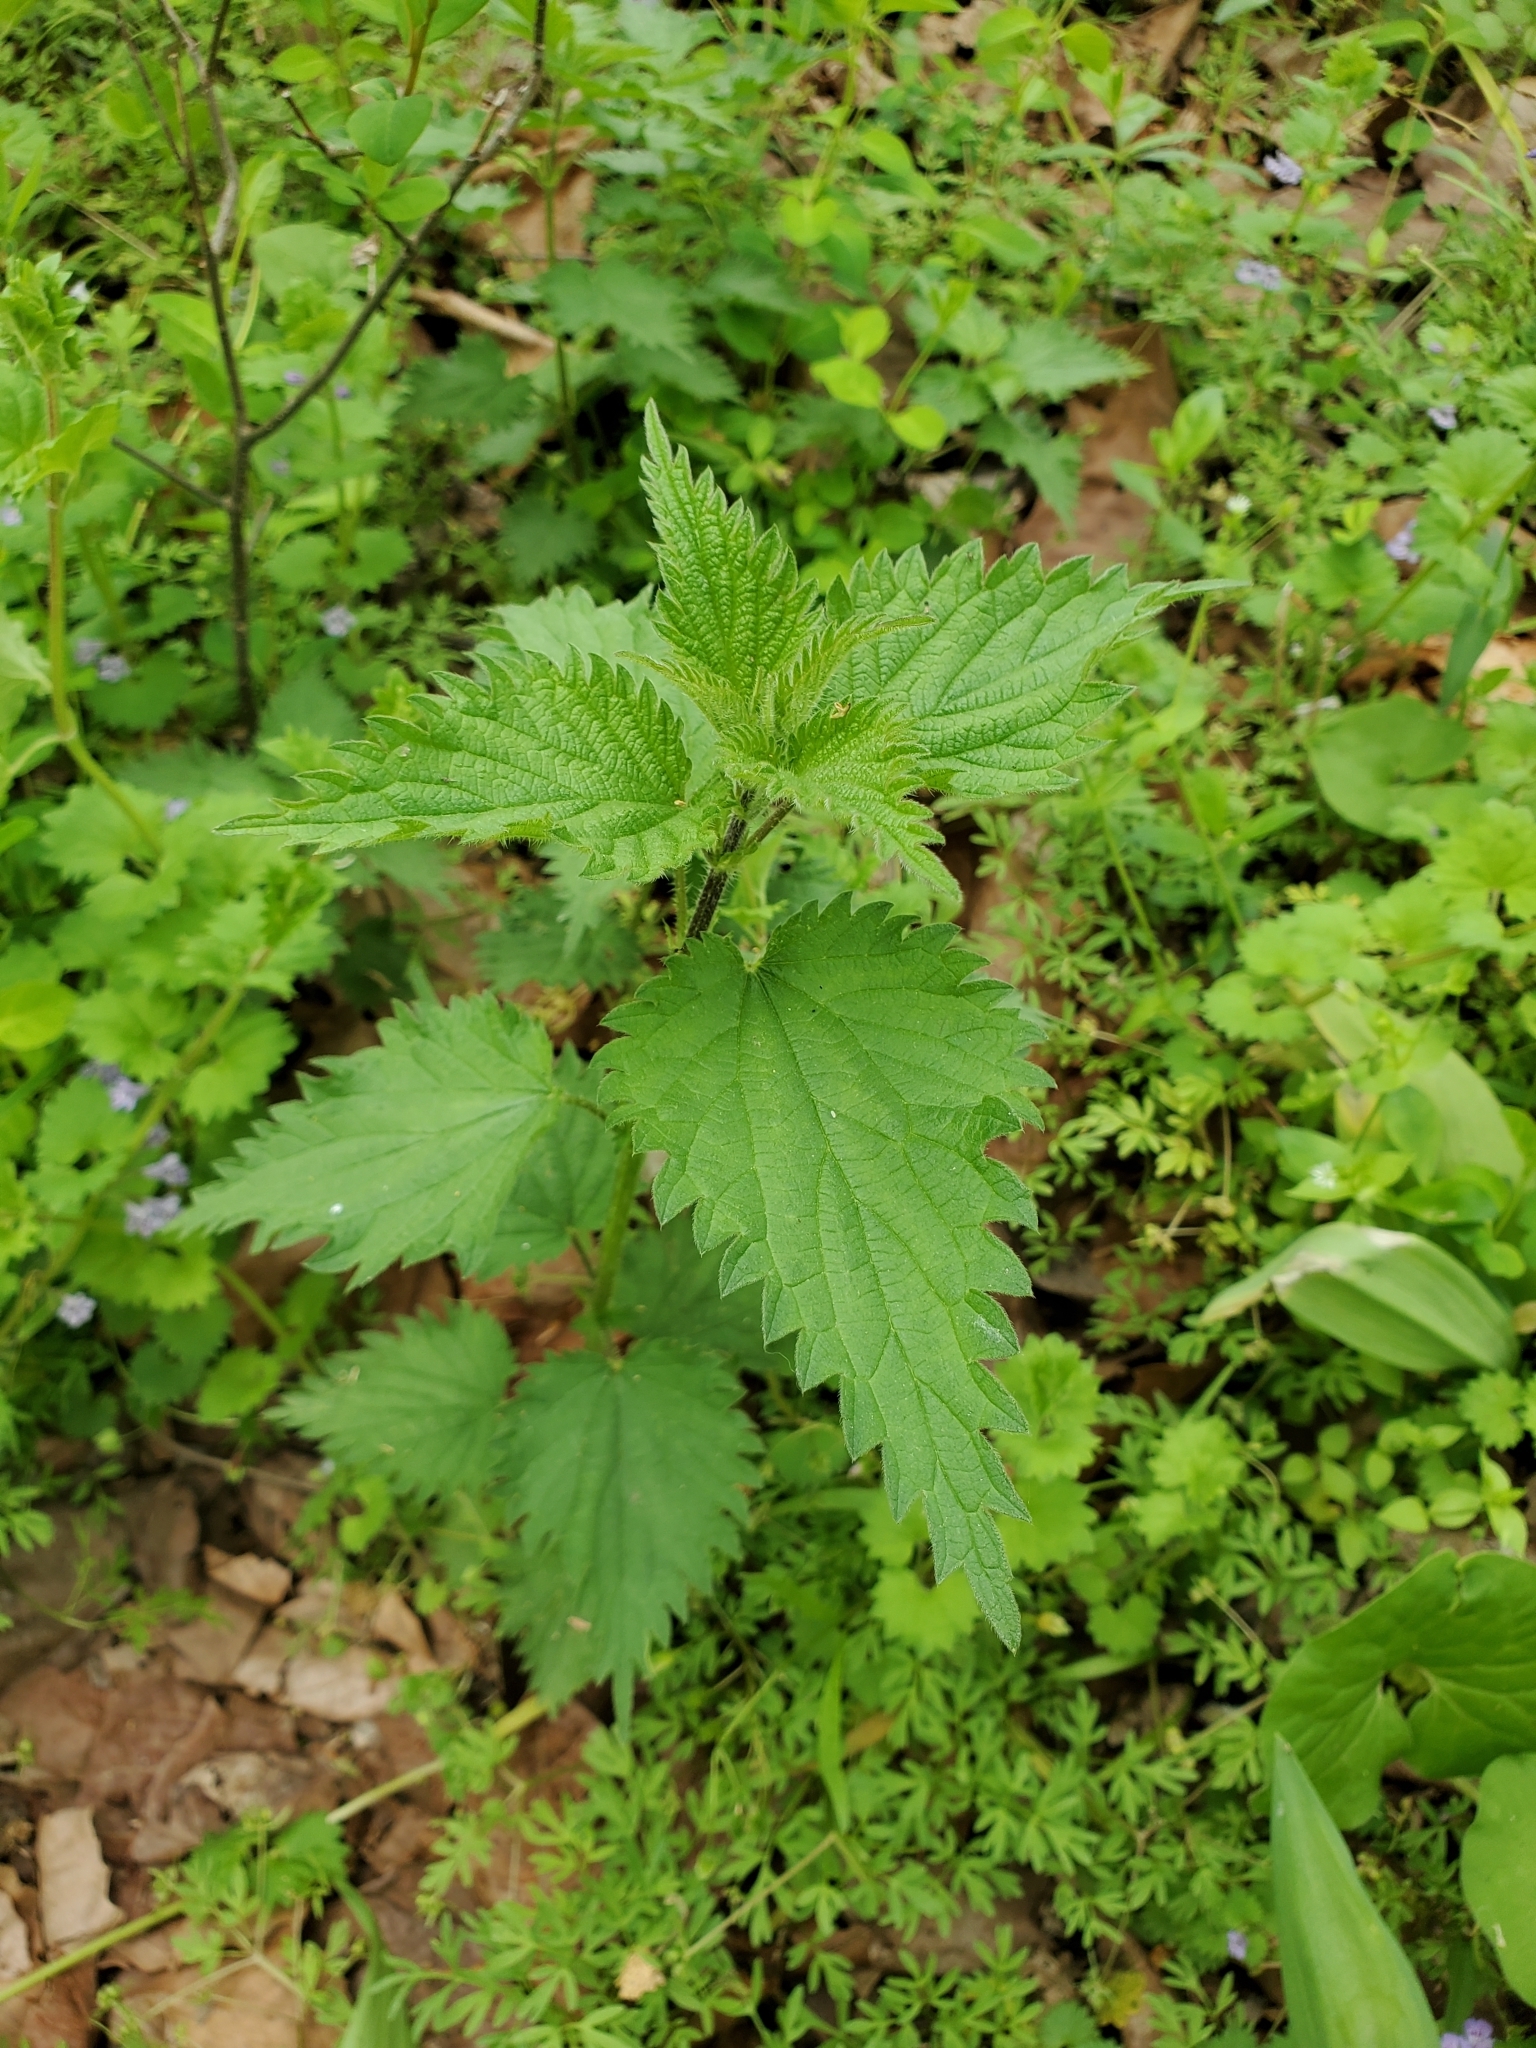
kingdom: Plantae
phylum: Tracheophyta
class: Magnoliopsida
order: Rosales
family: Urticaceae
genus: Urtica
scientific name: Urtica dioica
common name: Common nettle
